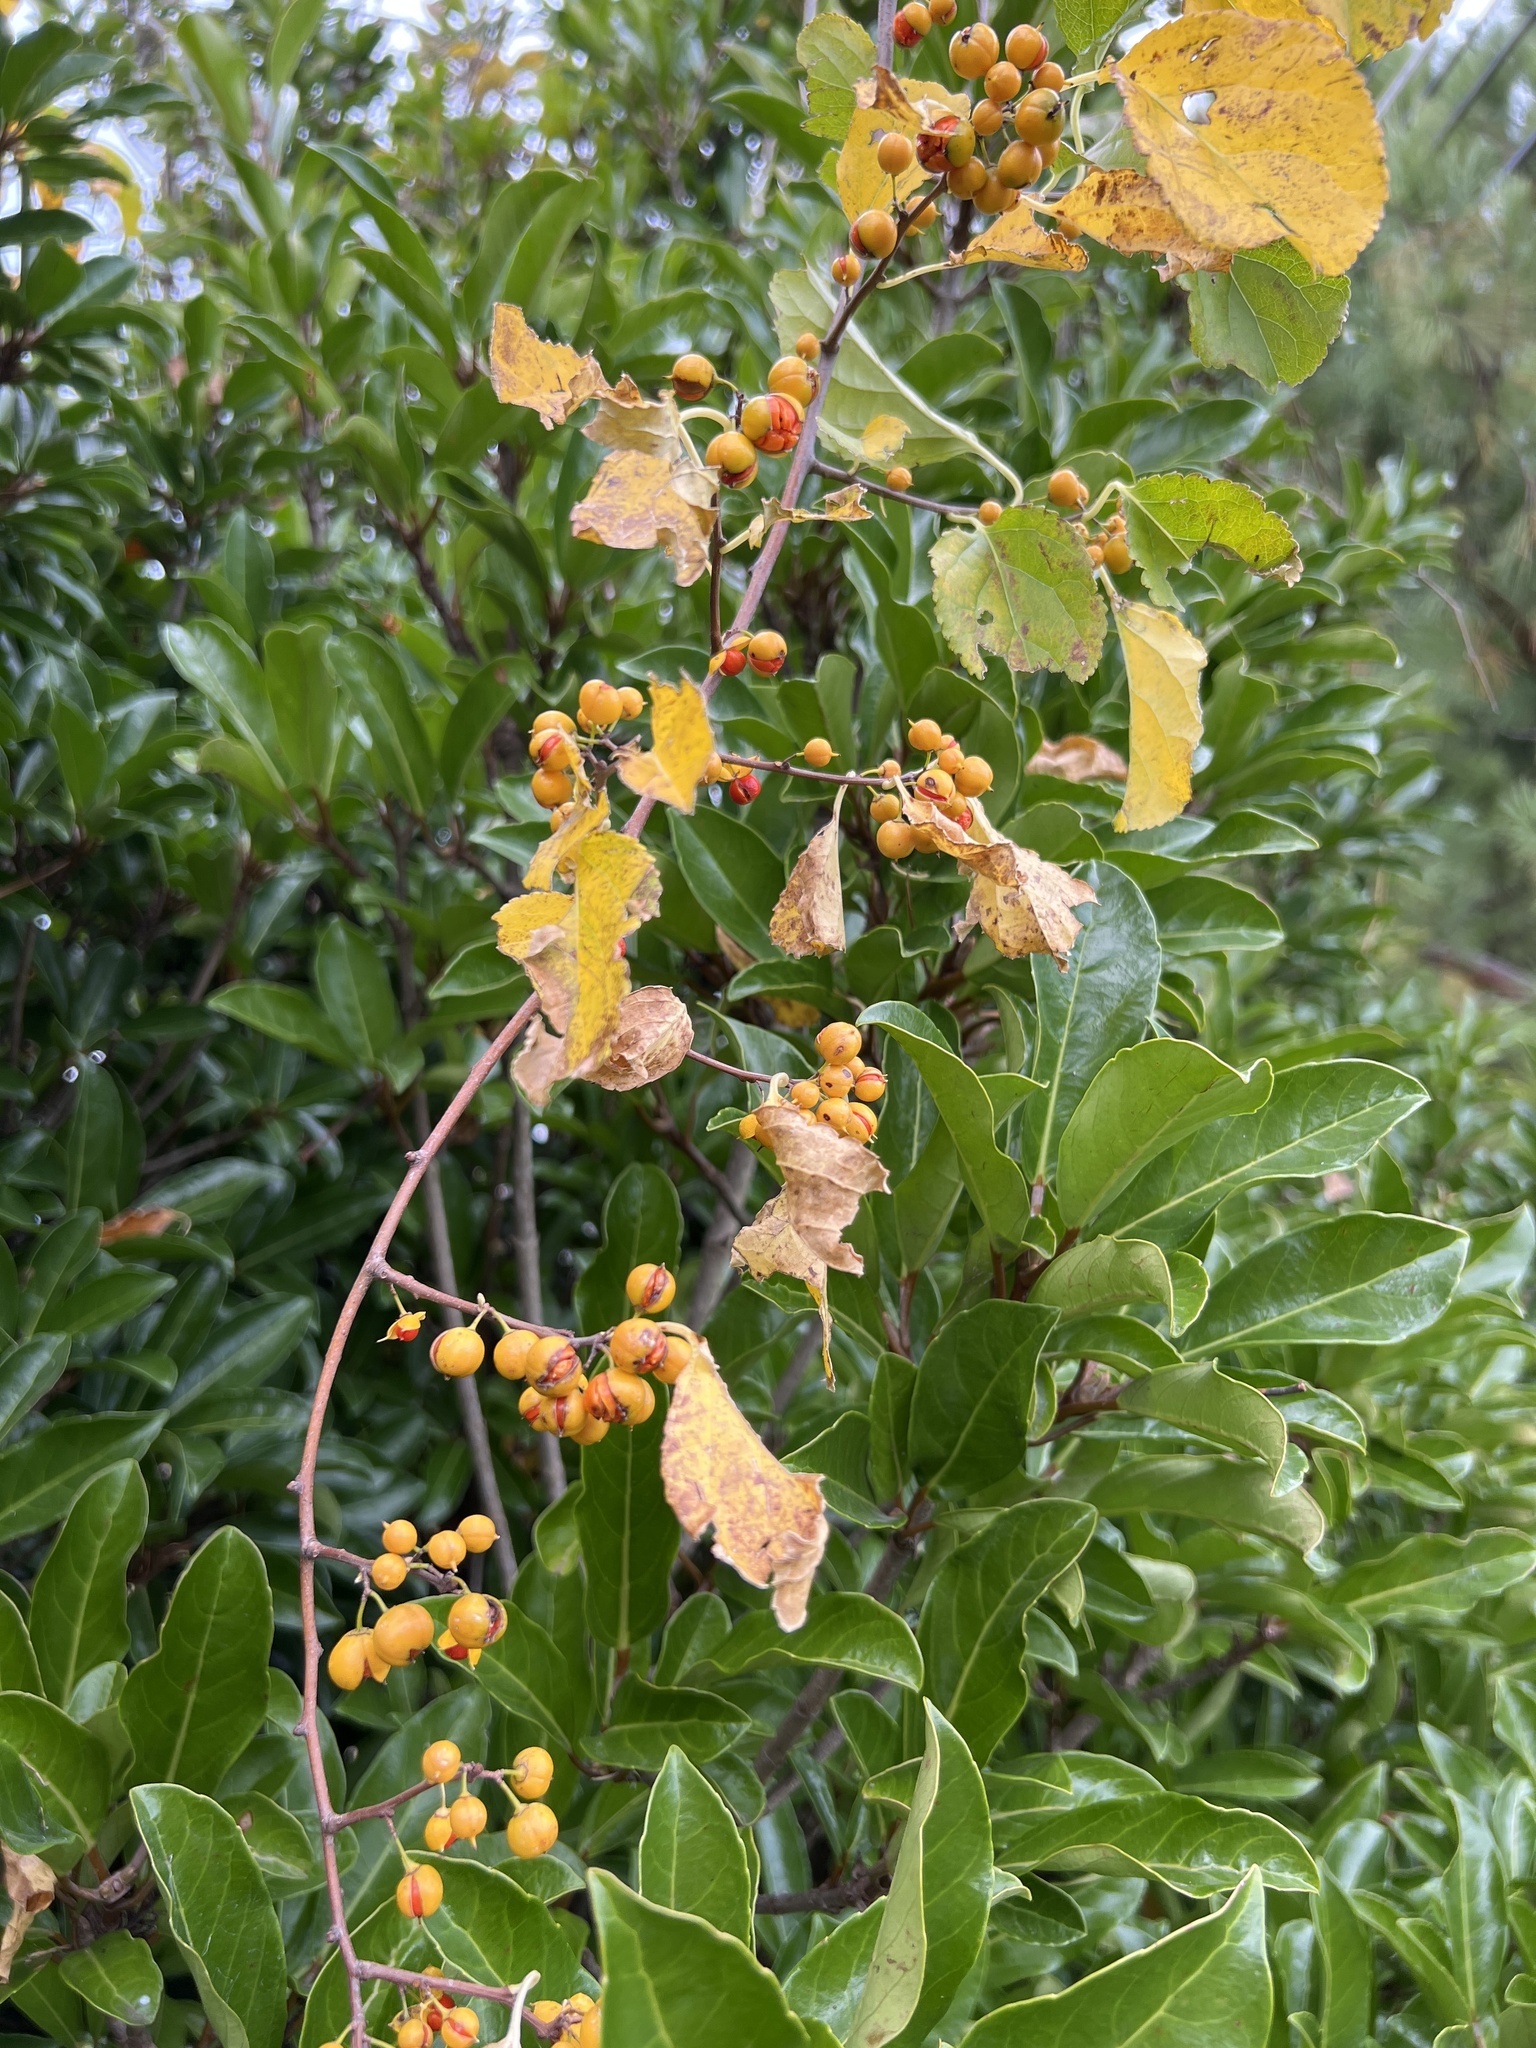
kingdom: Plantae
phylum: Tracheophyta
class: Magnoliopsida
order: Celastrales
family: Celastraceae
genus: Celastrus
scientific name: Celastrus orbiculatus
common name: Oriental bittersweet
